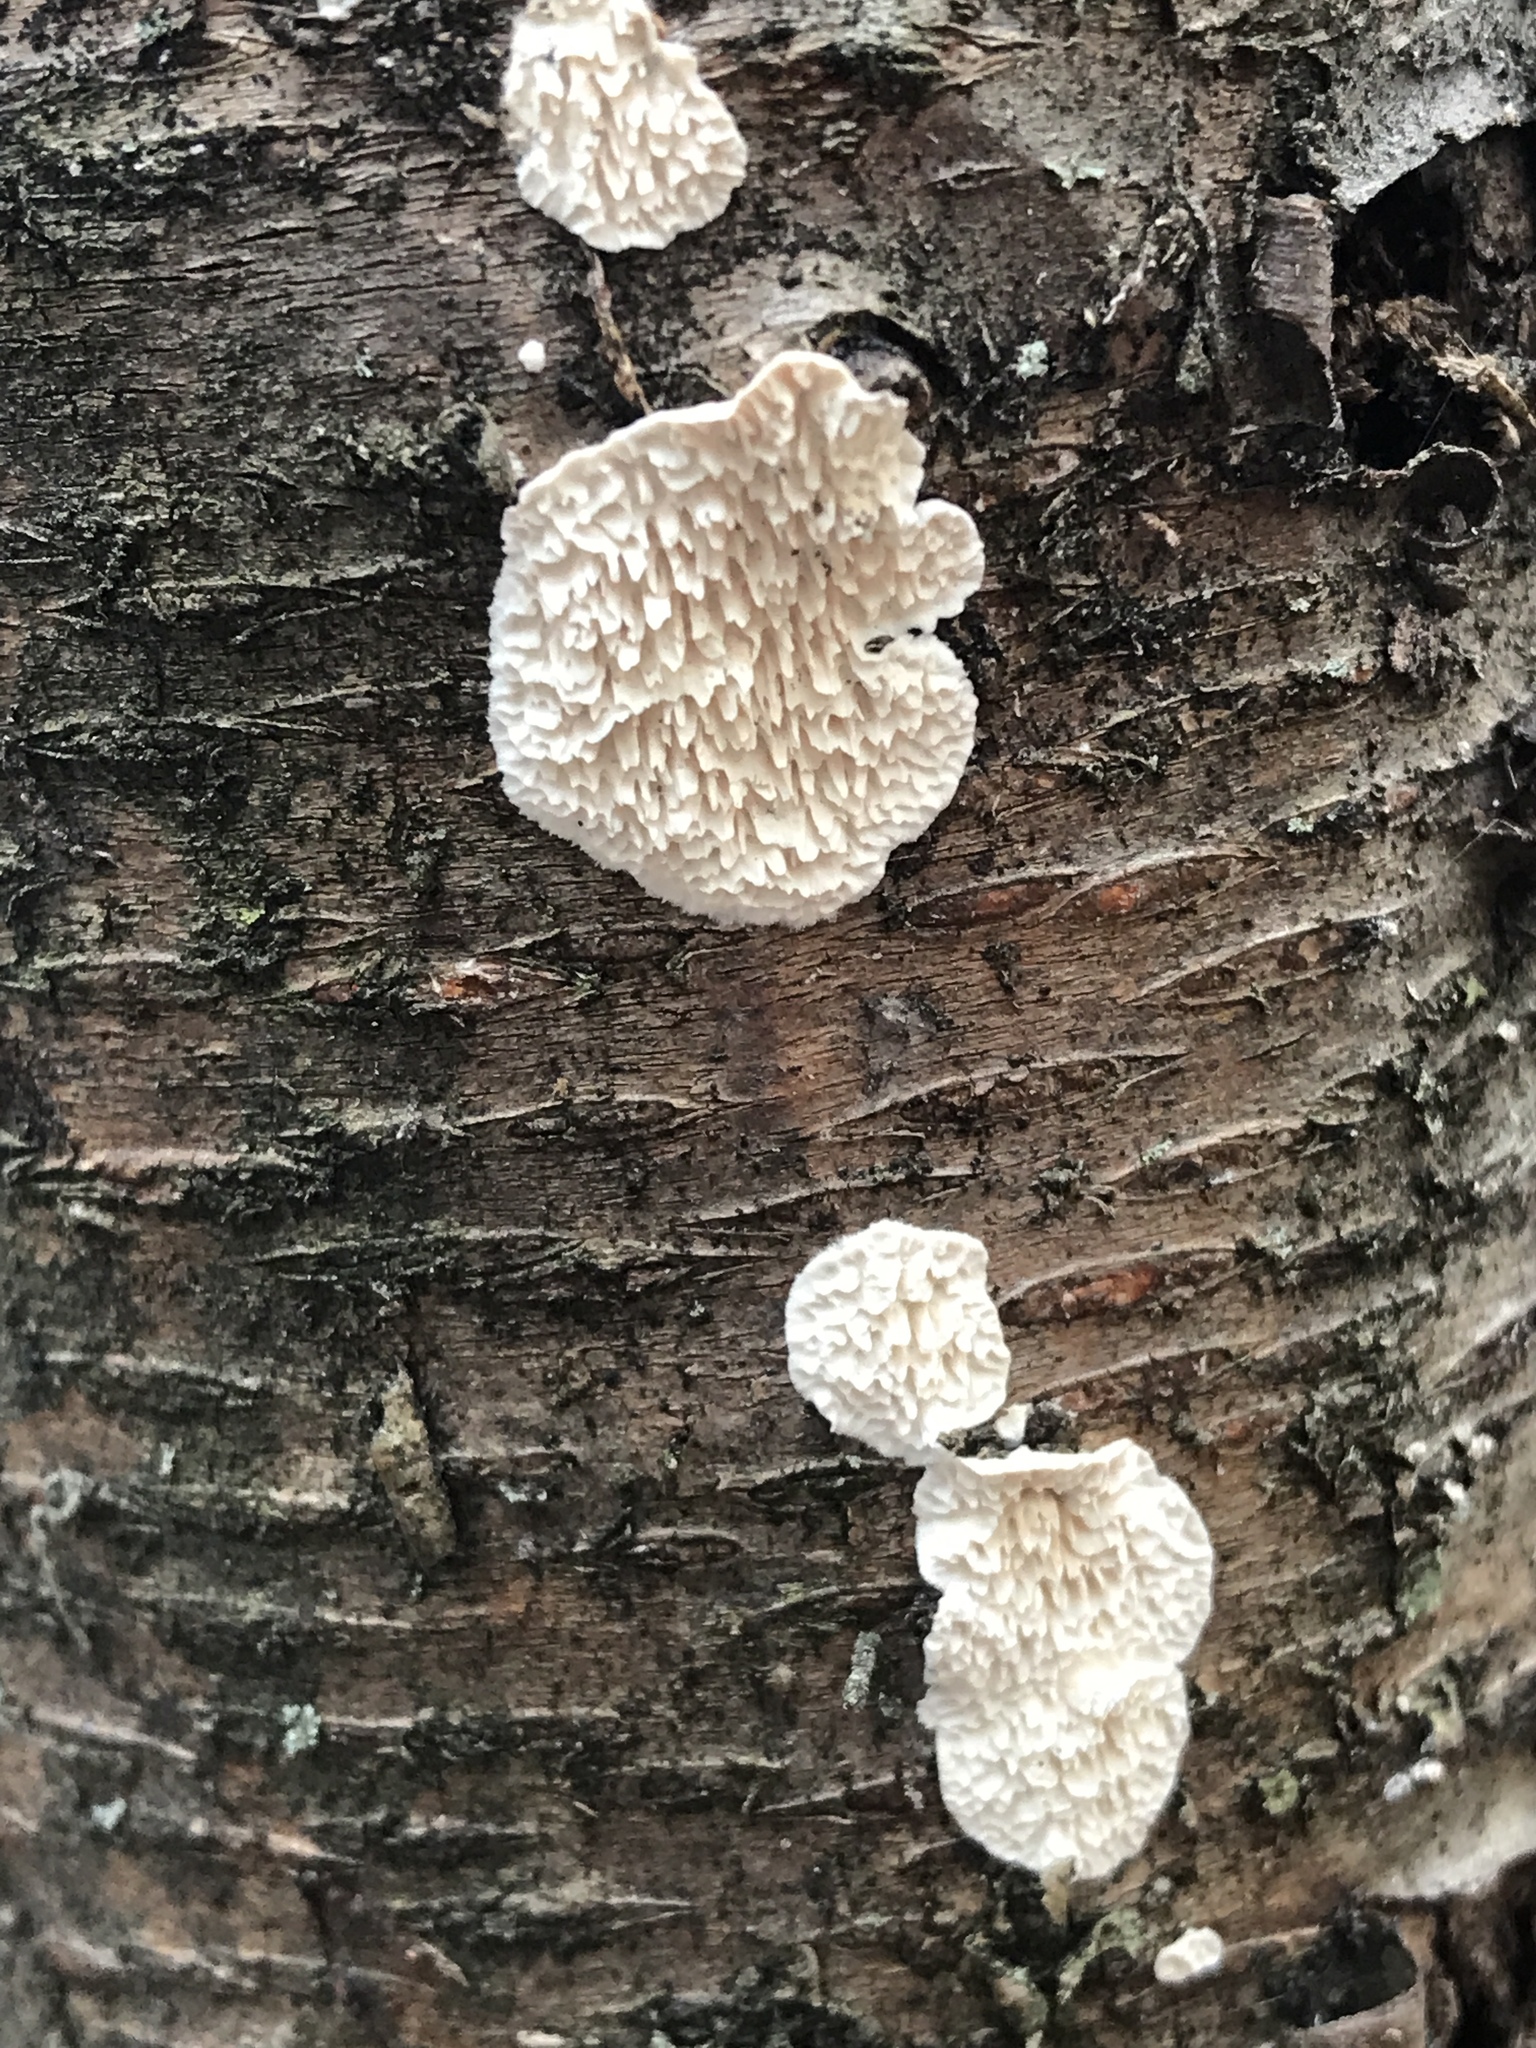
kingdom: Fungi
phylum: Basidiomycota
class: Agaricomycetes
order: Polyporales
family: Irpicaceae
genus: Irpex
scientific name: Irpex lacteus
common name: Milk-white toothed polypore
